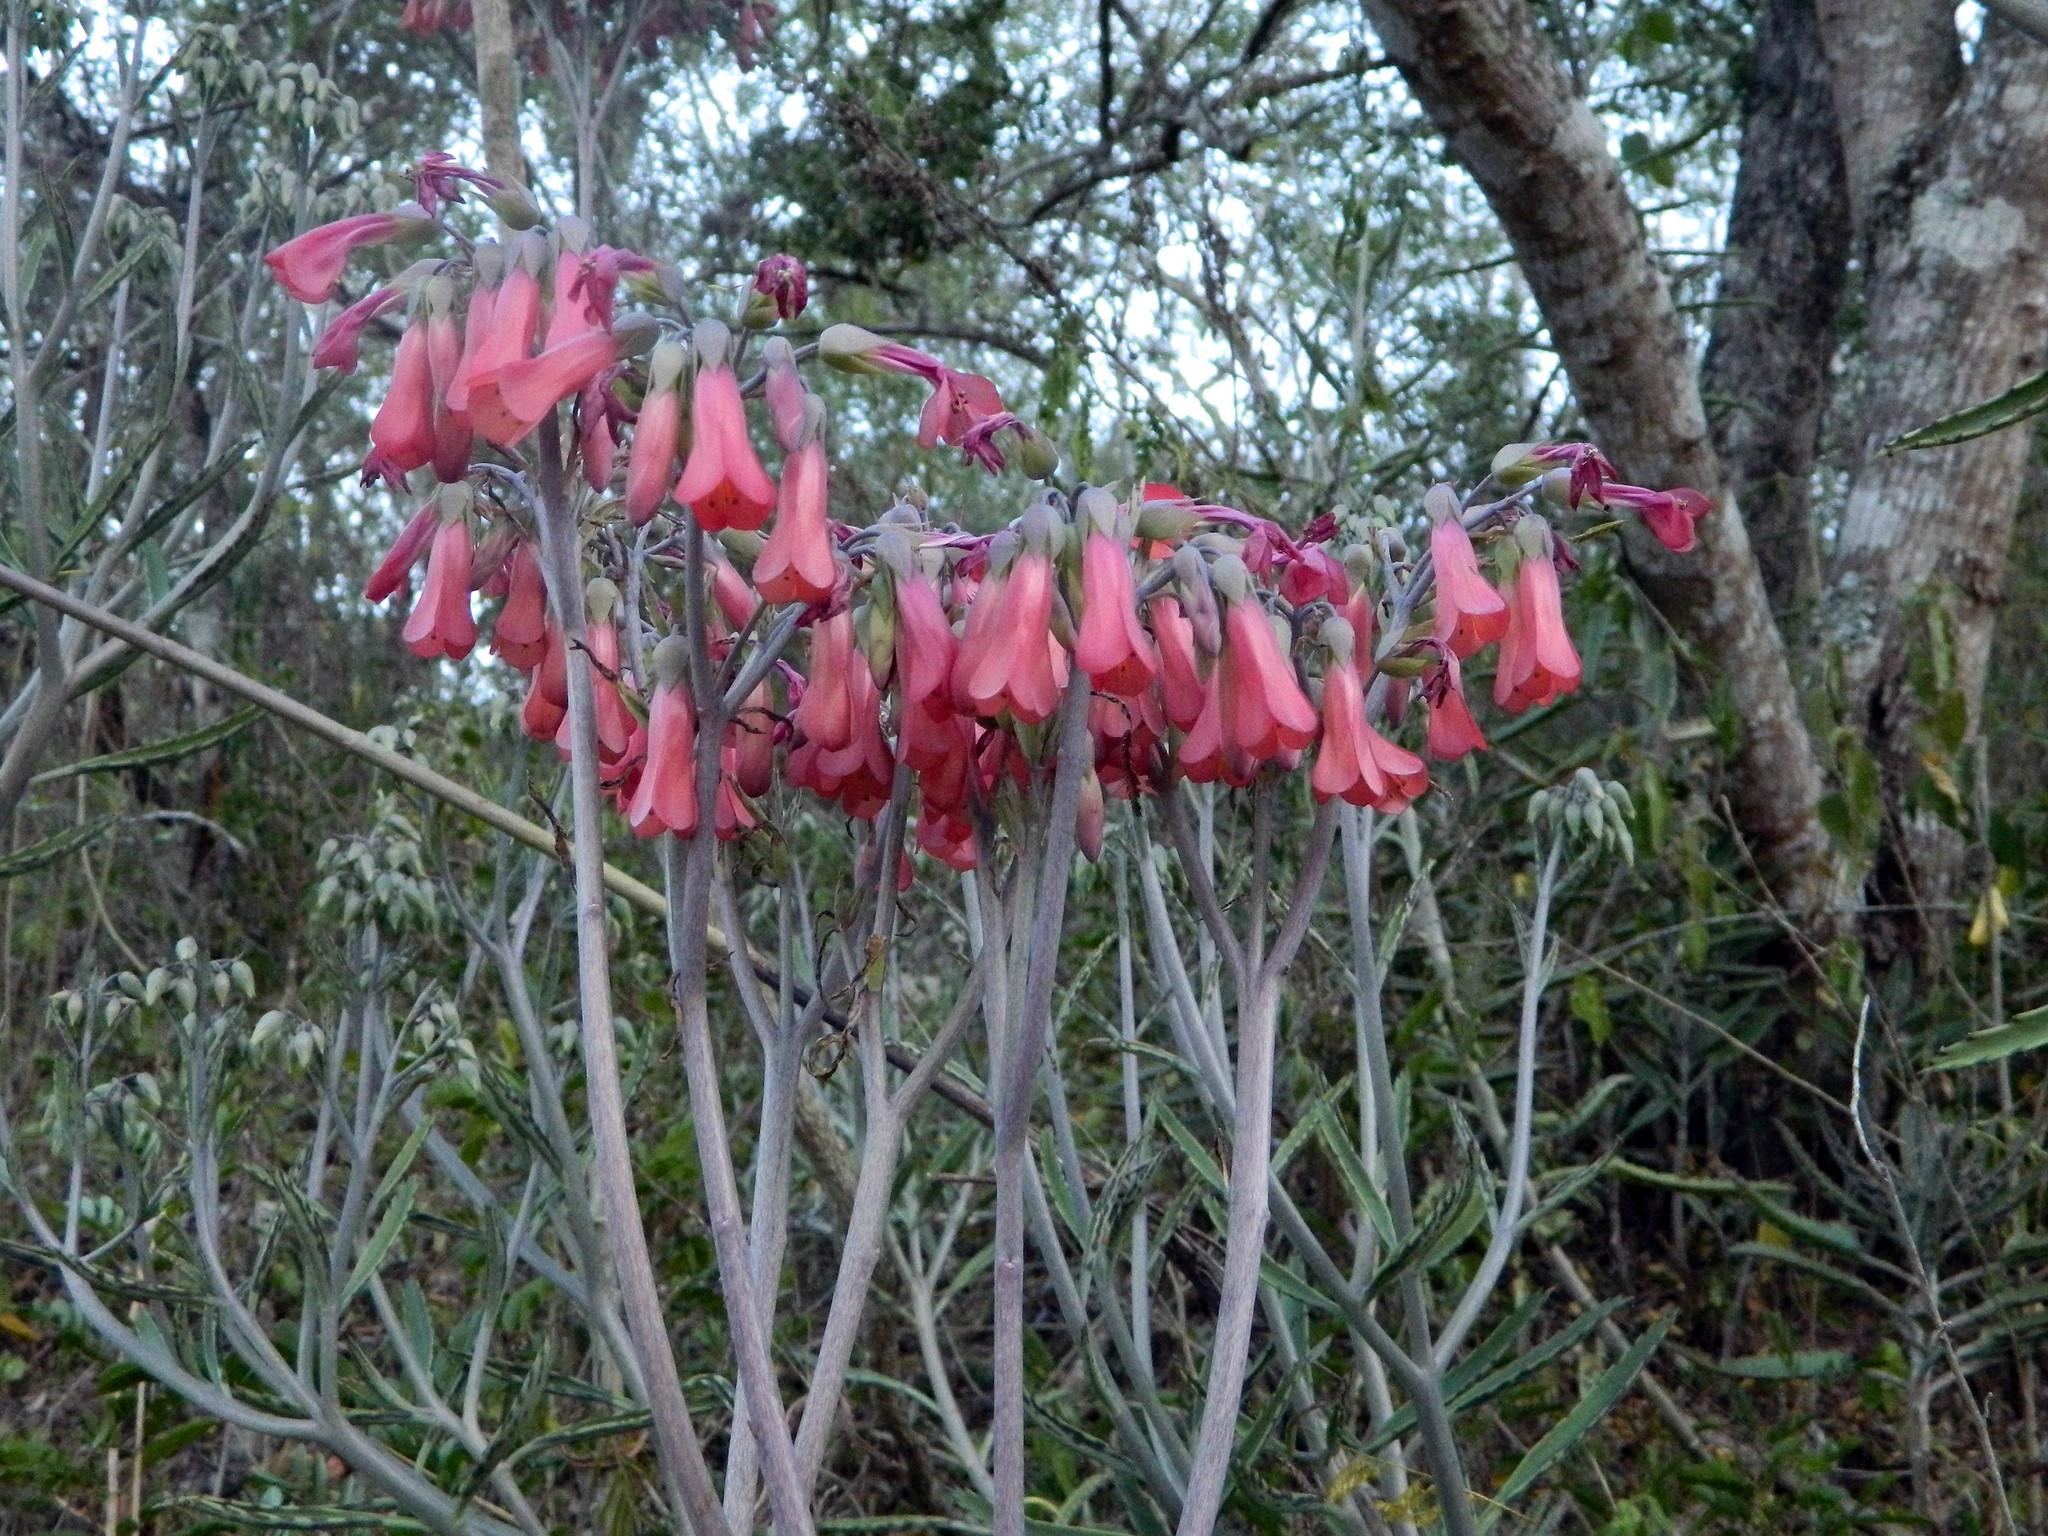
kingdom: Plantae
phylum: Tracheophyta
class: Magnoliopsida
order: Saxifragales
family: Crassulaceae
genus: Kalanchoe
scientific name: Kalanchoe houghtonii
